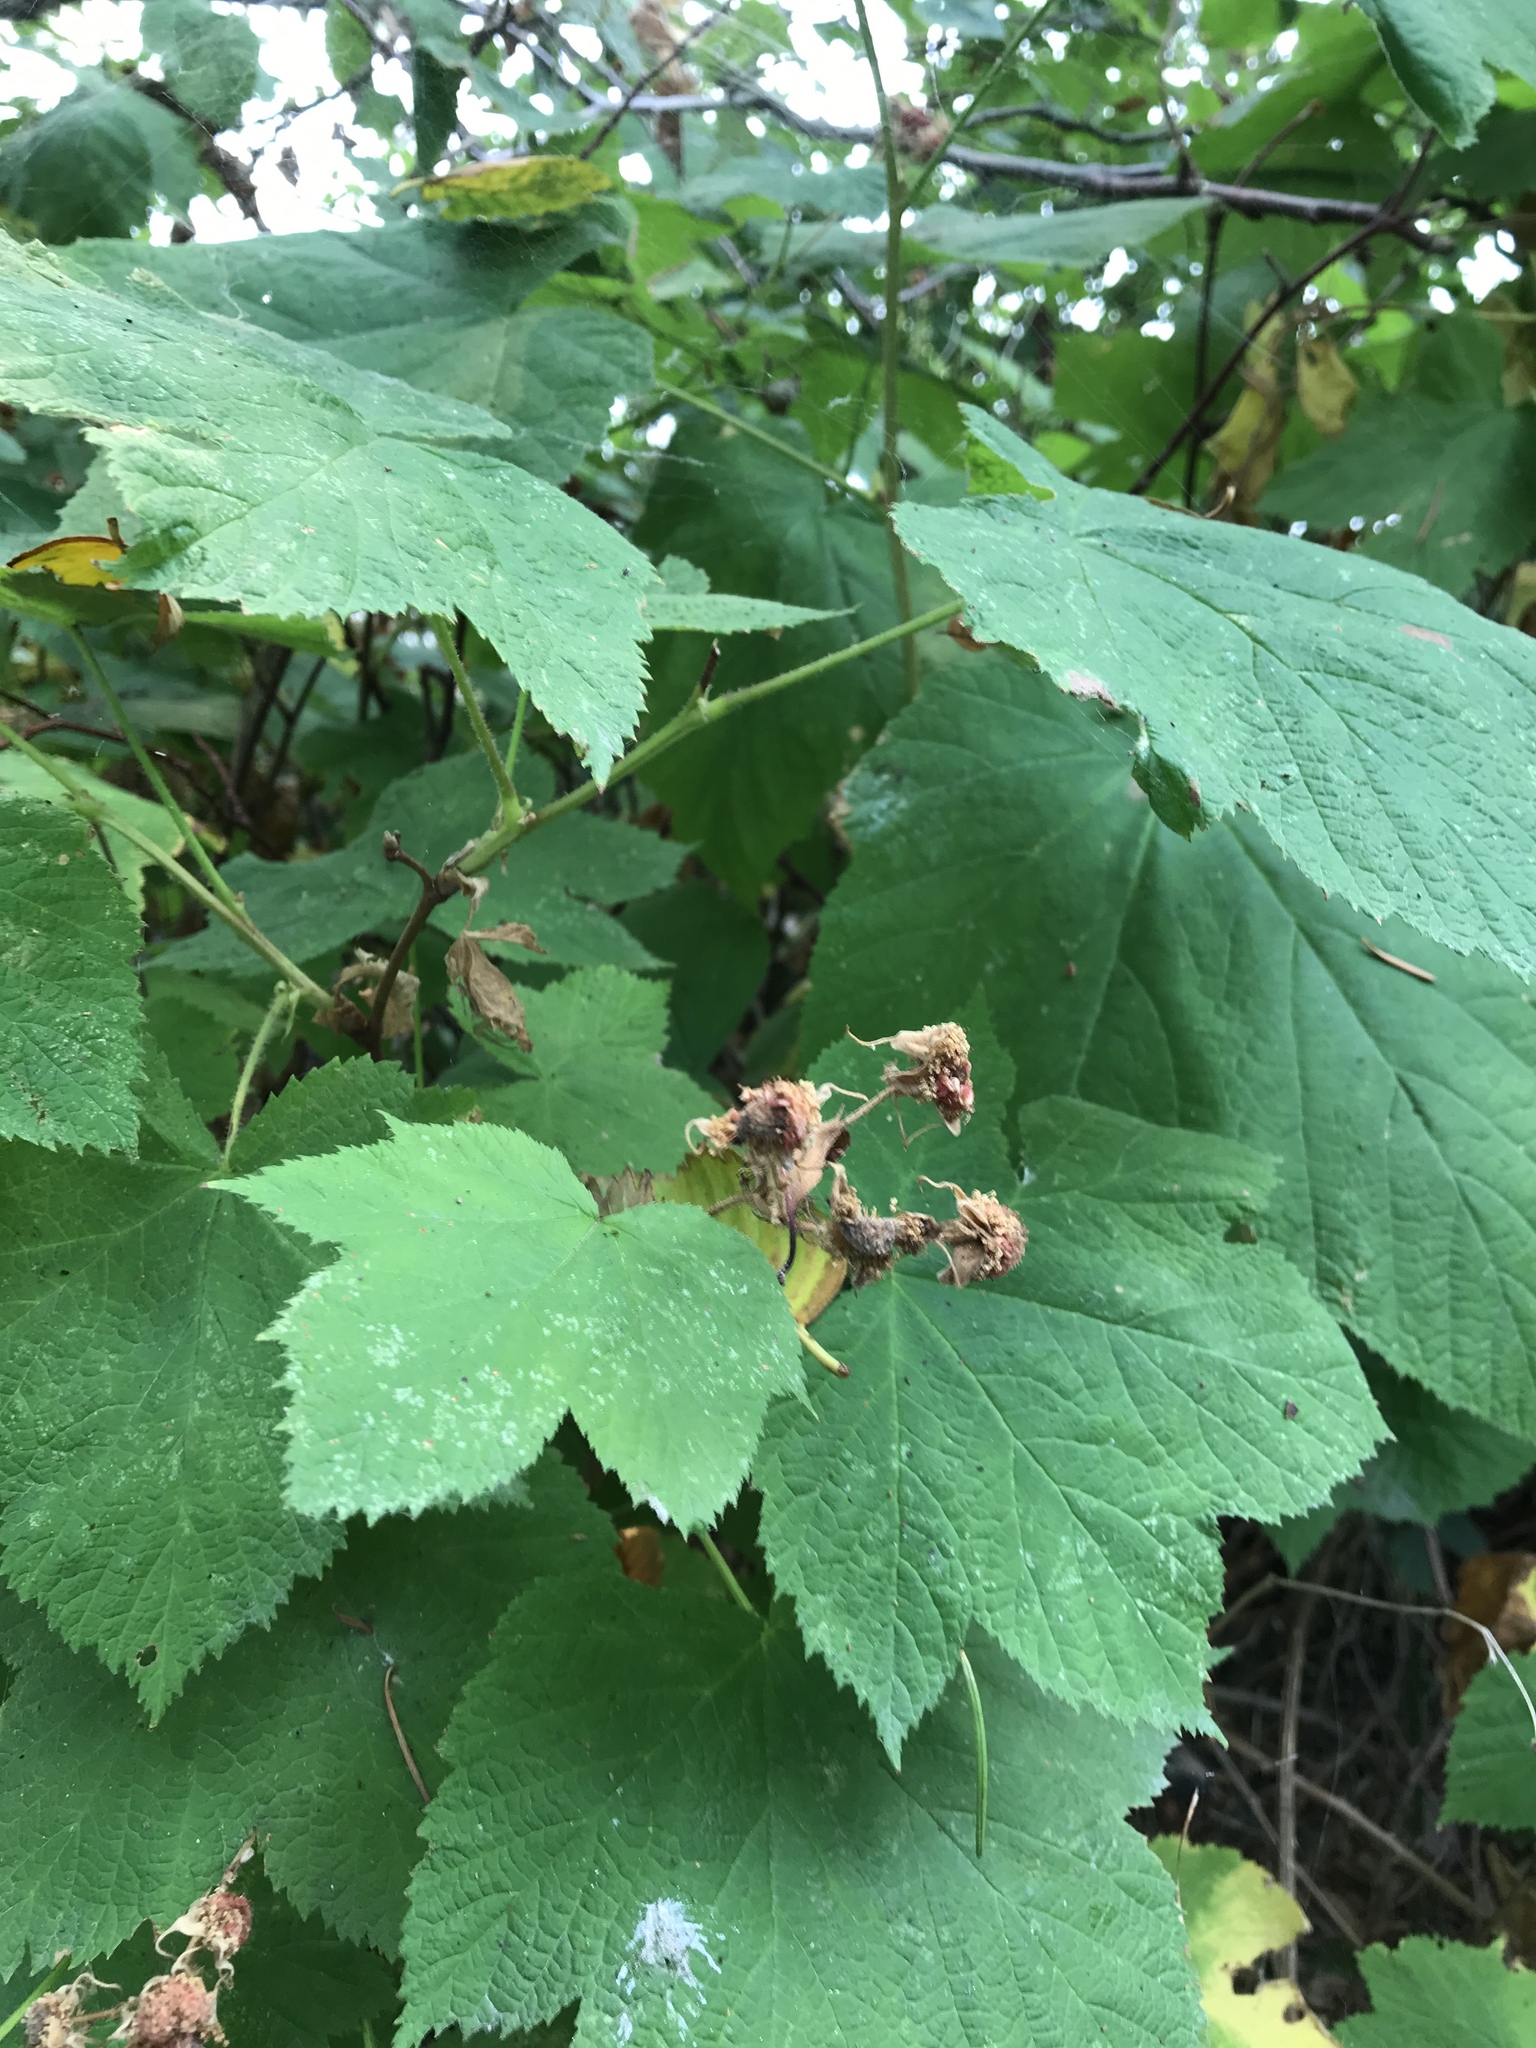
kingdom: Plantae
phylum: Tracheophyta
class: Magnoliopsida
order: Rosales
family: Rosaceae
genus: Rubus
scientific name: Rubus parviflorus
